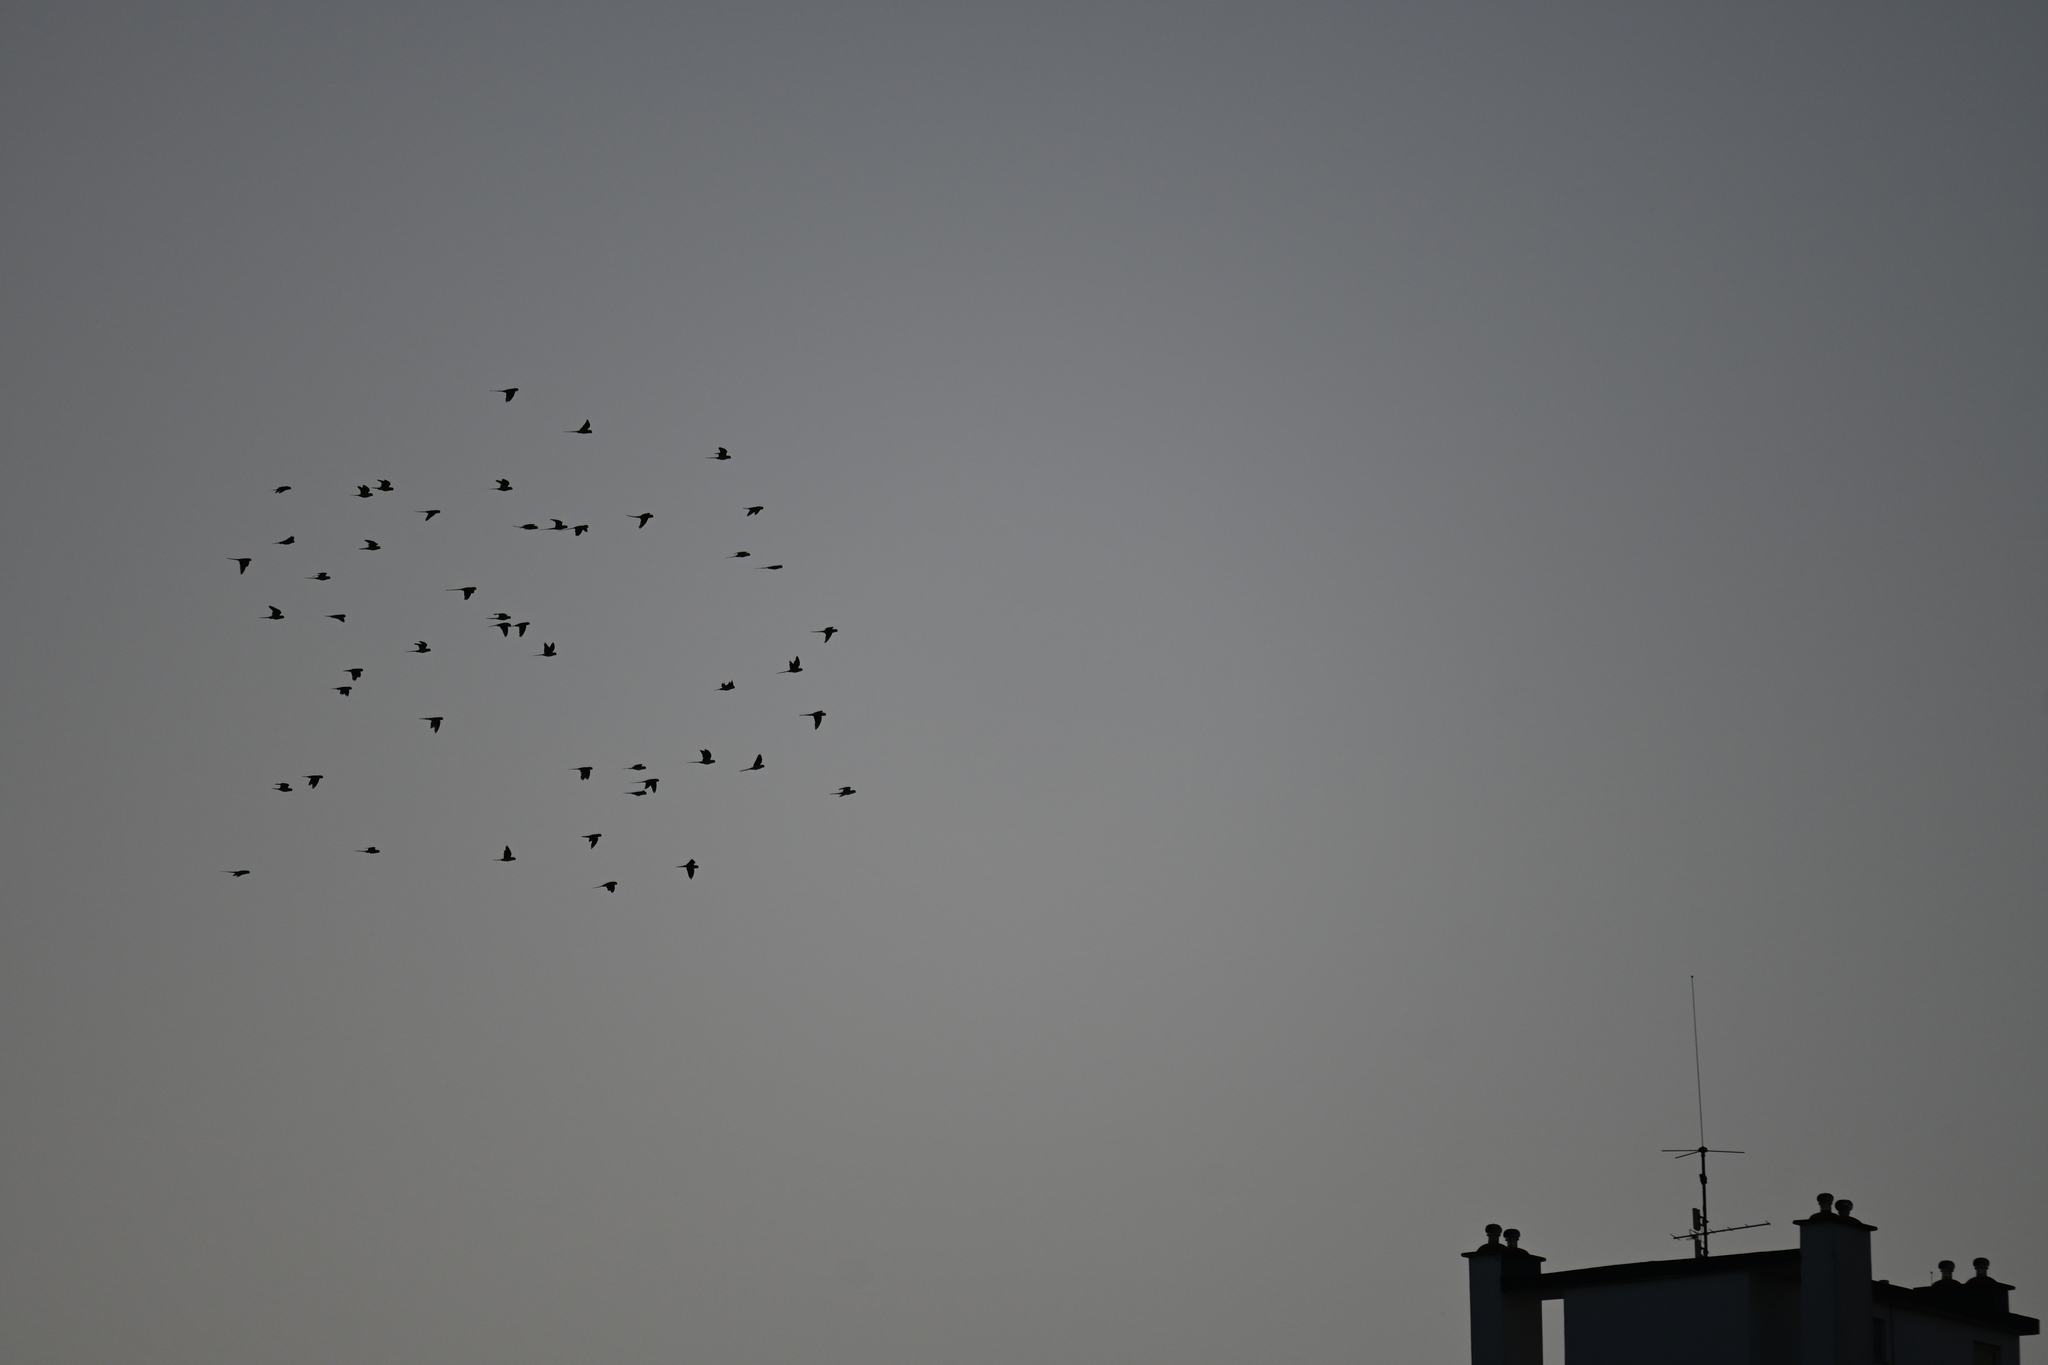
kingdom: Animalia
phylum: Chordata
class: Aves
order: Psittaciformes
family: Psittacidae
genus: Psittacula
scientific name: Psittacula krameri
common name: Rose-ringed parakeet
